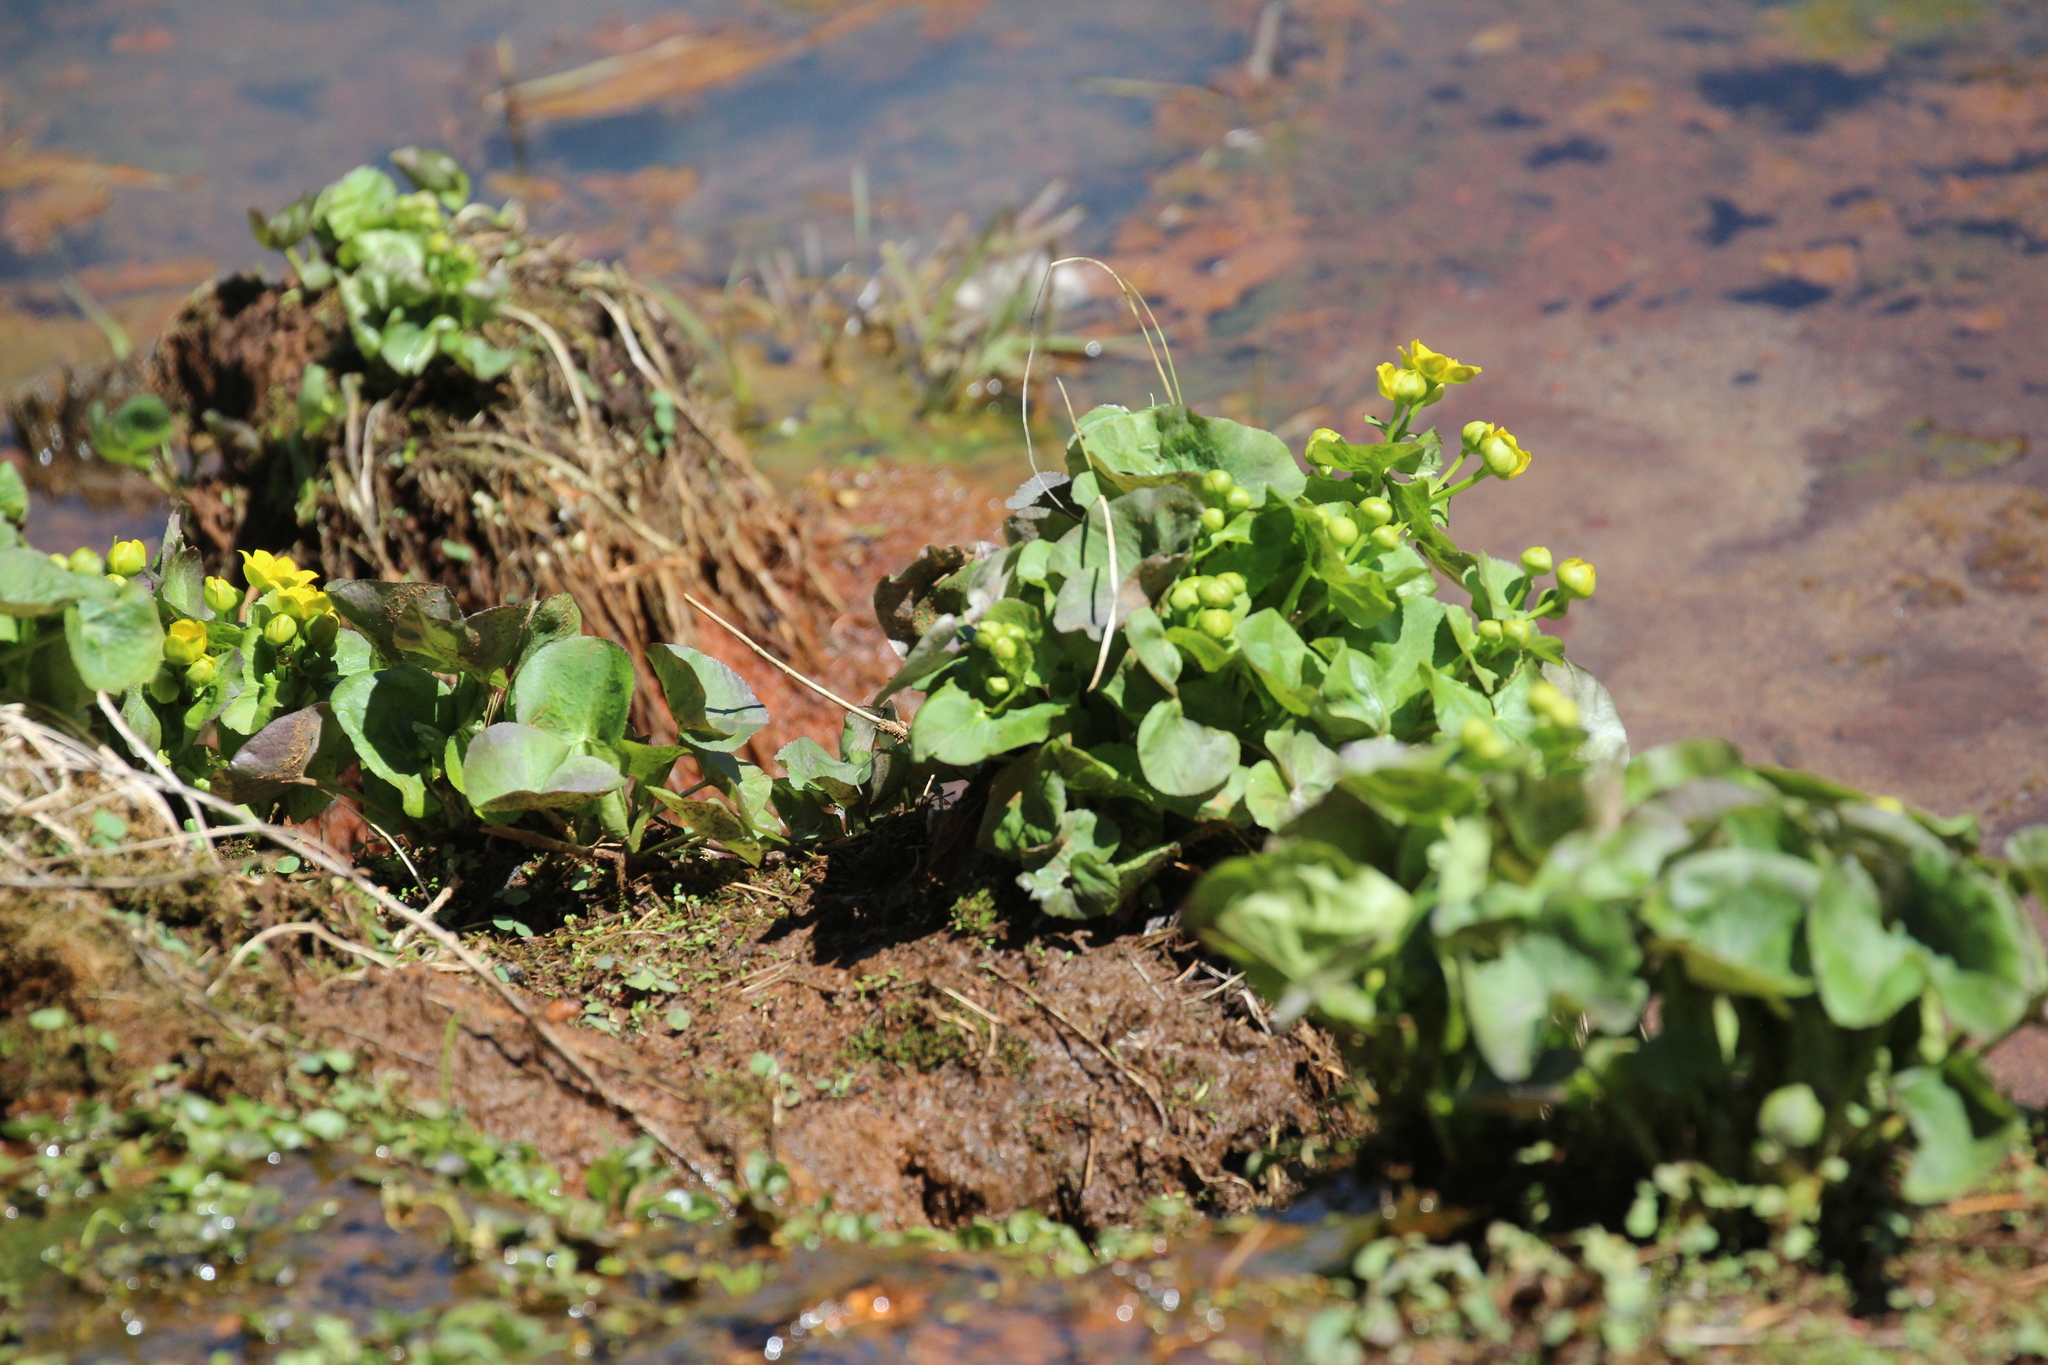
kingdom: Plantae
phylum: Tracheophyta
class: Magnoliopsida
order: Ranunculales
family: Ranunculaceae
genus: Caltha
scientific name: Caltha palustris
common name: Marsh marigold
